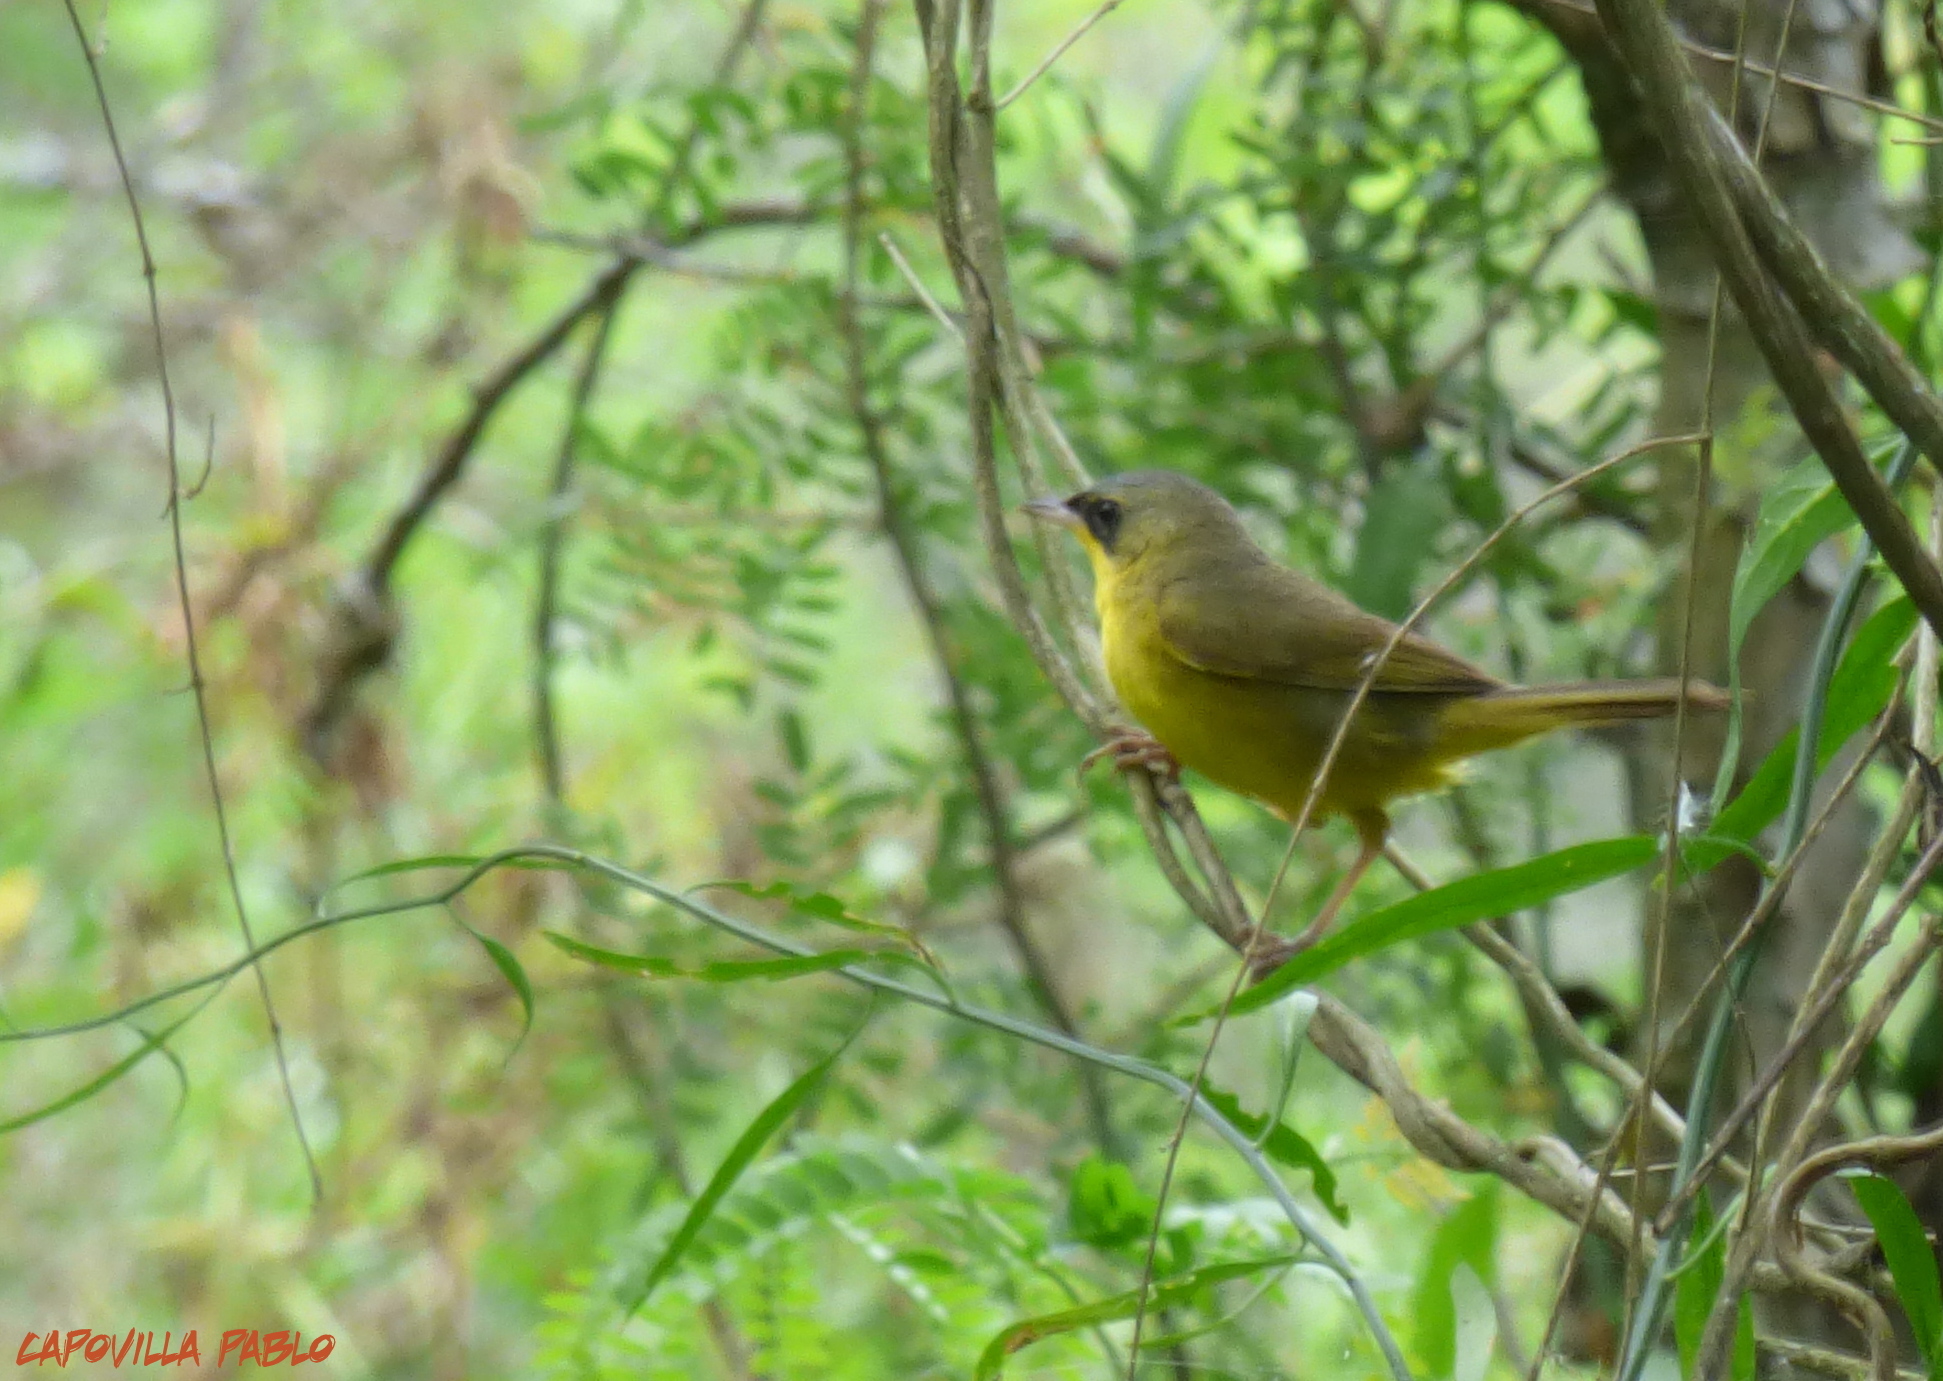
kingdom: Animalia
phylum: Chordata
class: Aves
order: Passeriformes
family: Parulidae
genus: Geothlypis
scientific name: Geothlypis velata
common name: Southern yellowthroat
